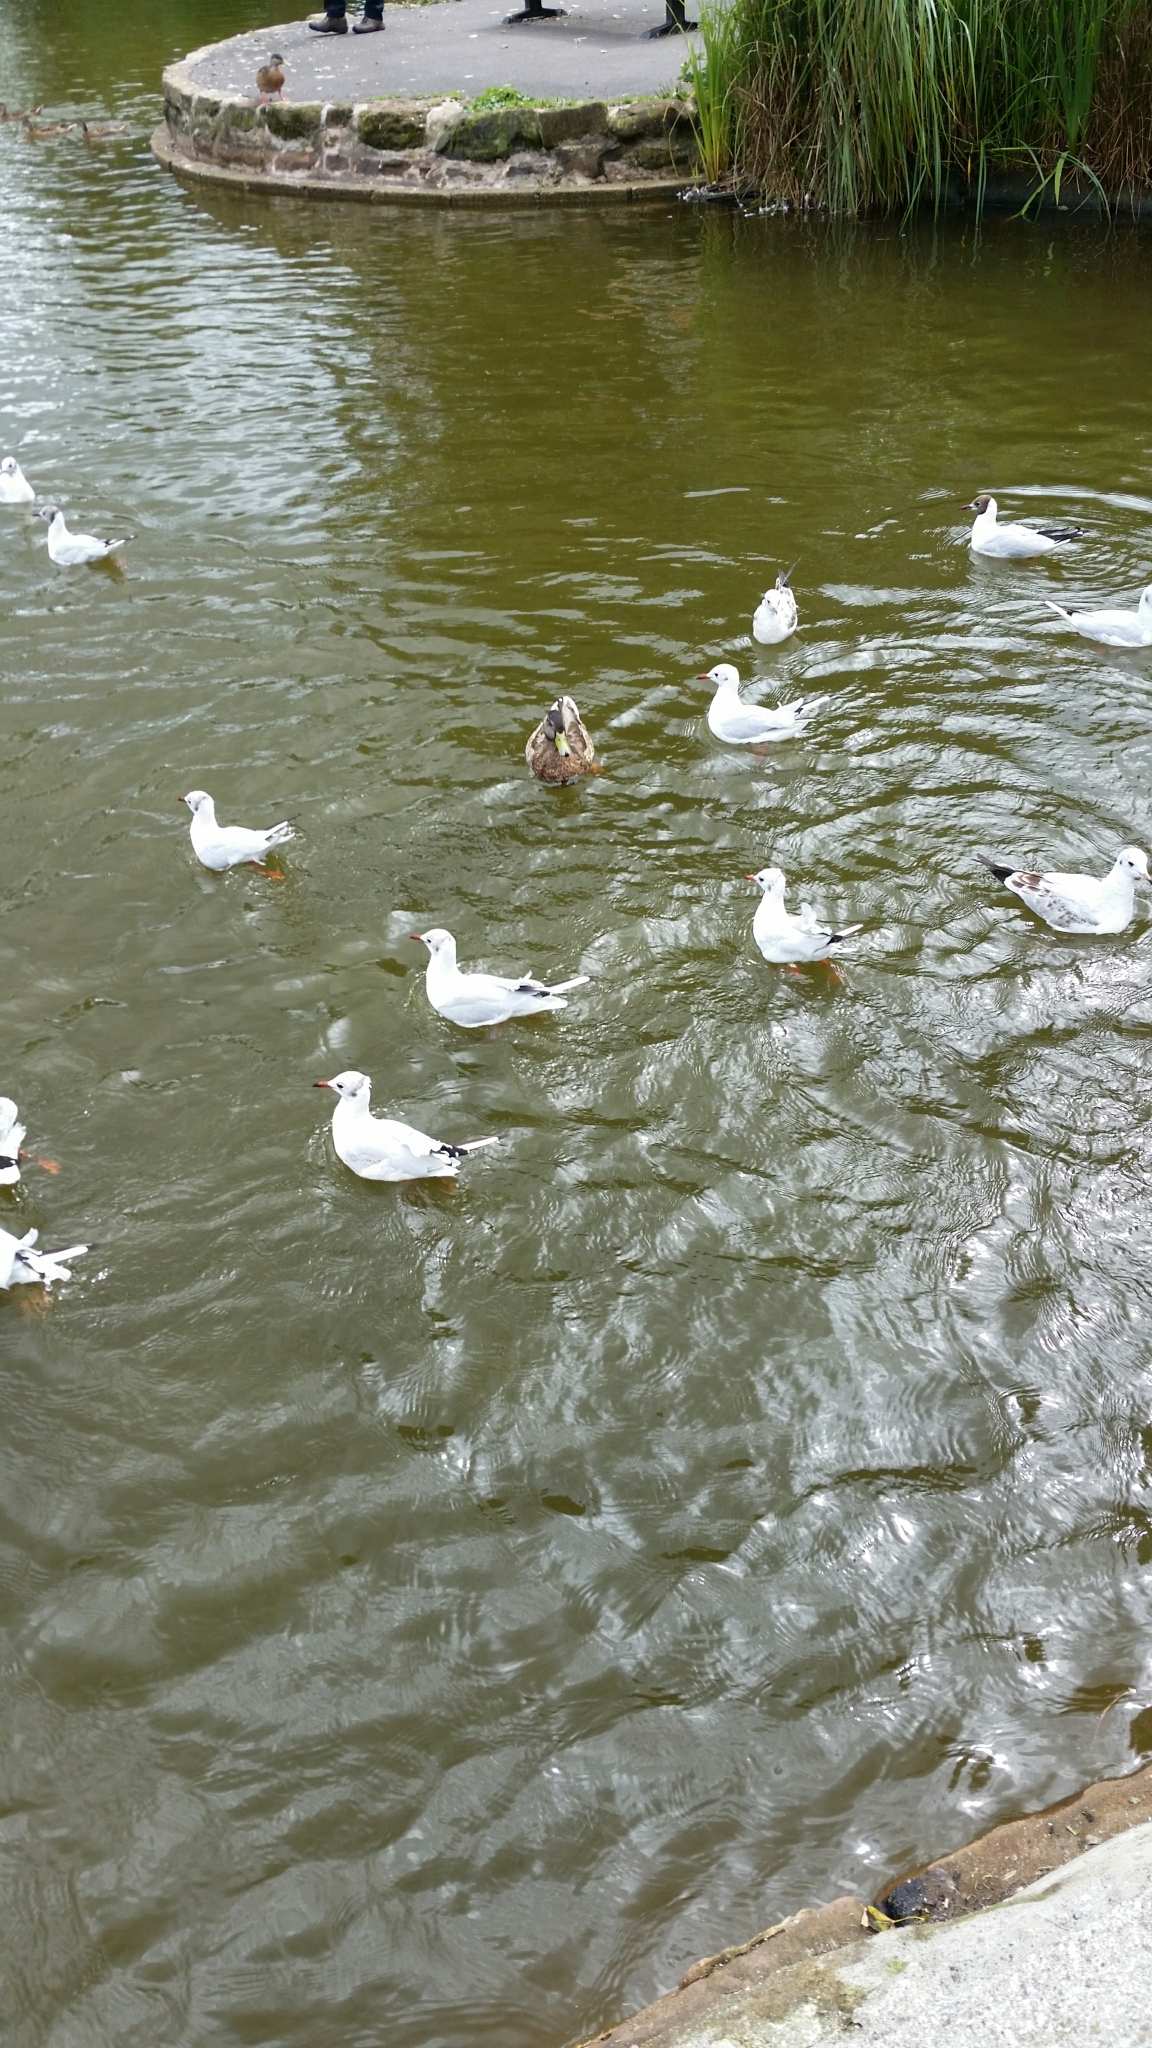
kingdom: Animalia
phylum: Chordata
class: Aves
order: Charadriiformes
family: Laridae
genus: Chroicocephalus
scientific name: Chroicocephalus ridibundus
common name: Black-headed gull
